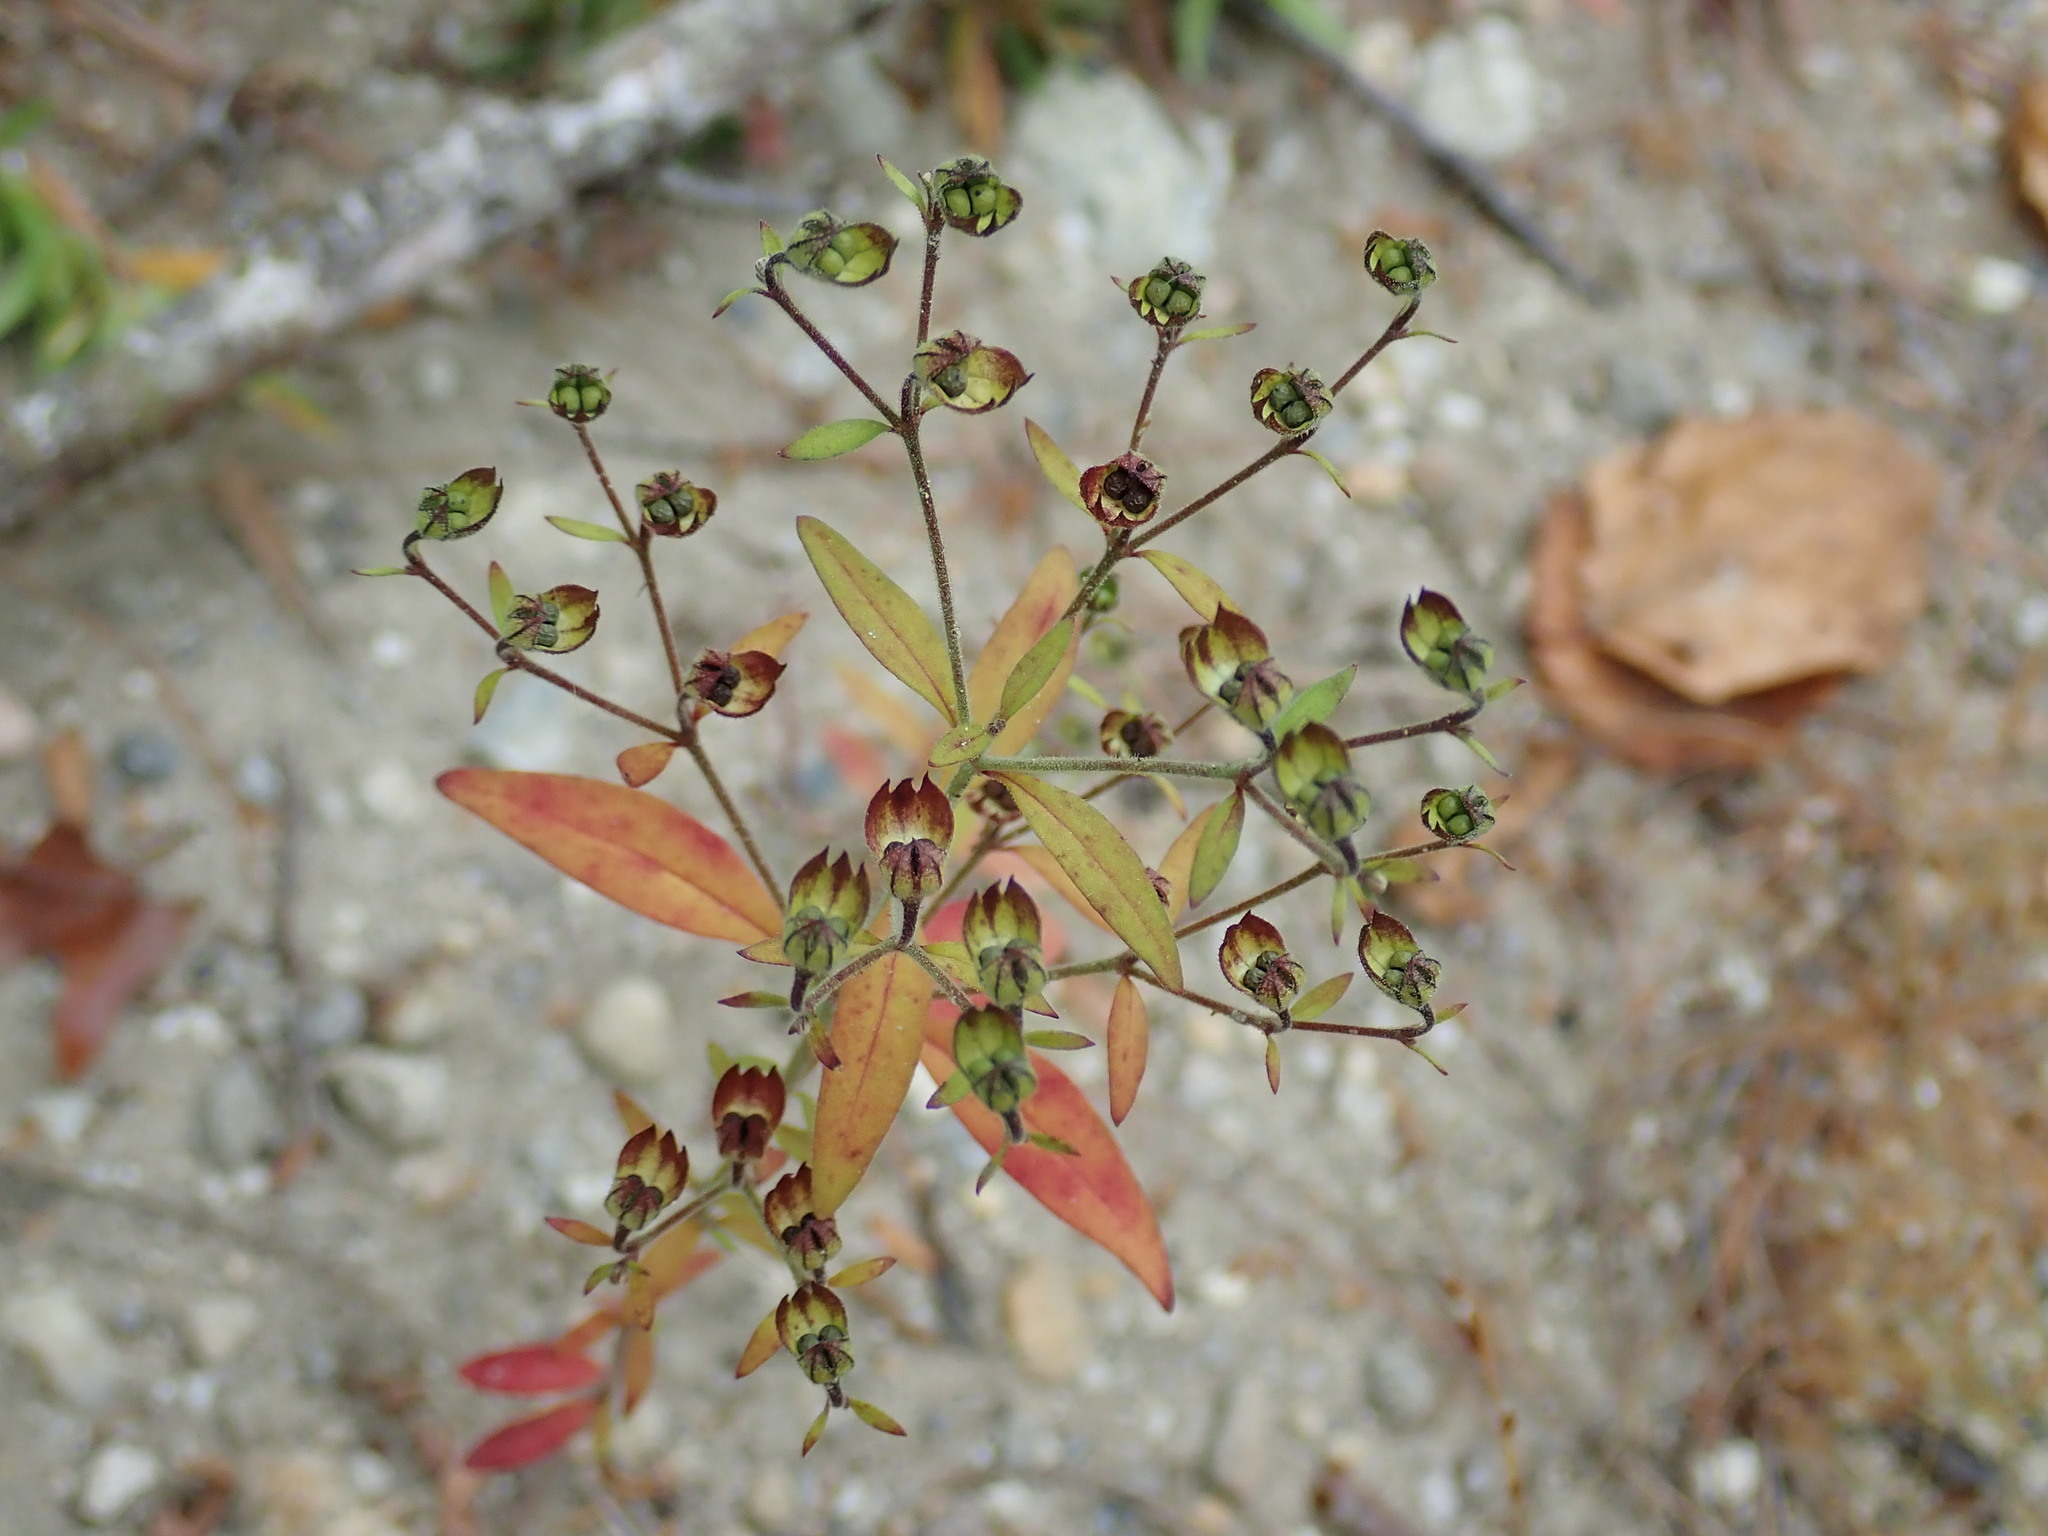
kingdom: Plantae
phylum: Tracheophyta
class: Magnoliopsida
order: Lamiales
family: Lamiaceae
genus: Trichostema
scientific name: Trichostema dichotomum
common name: Bastard pennyroyal
